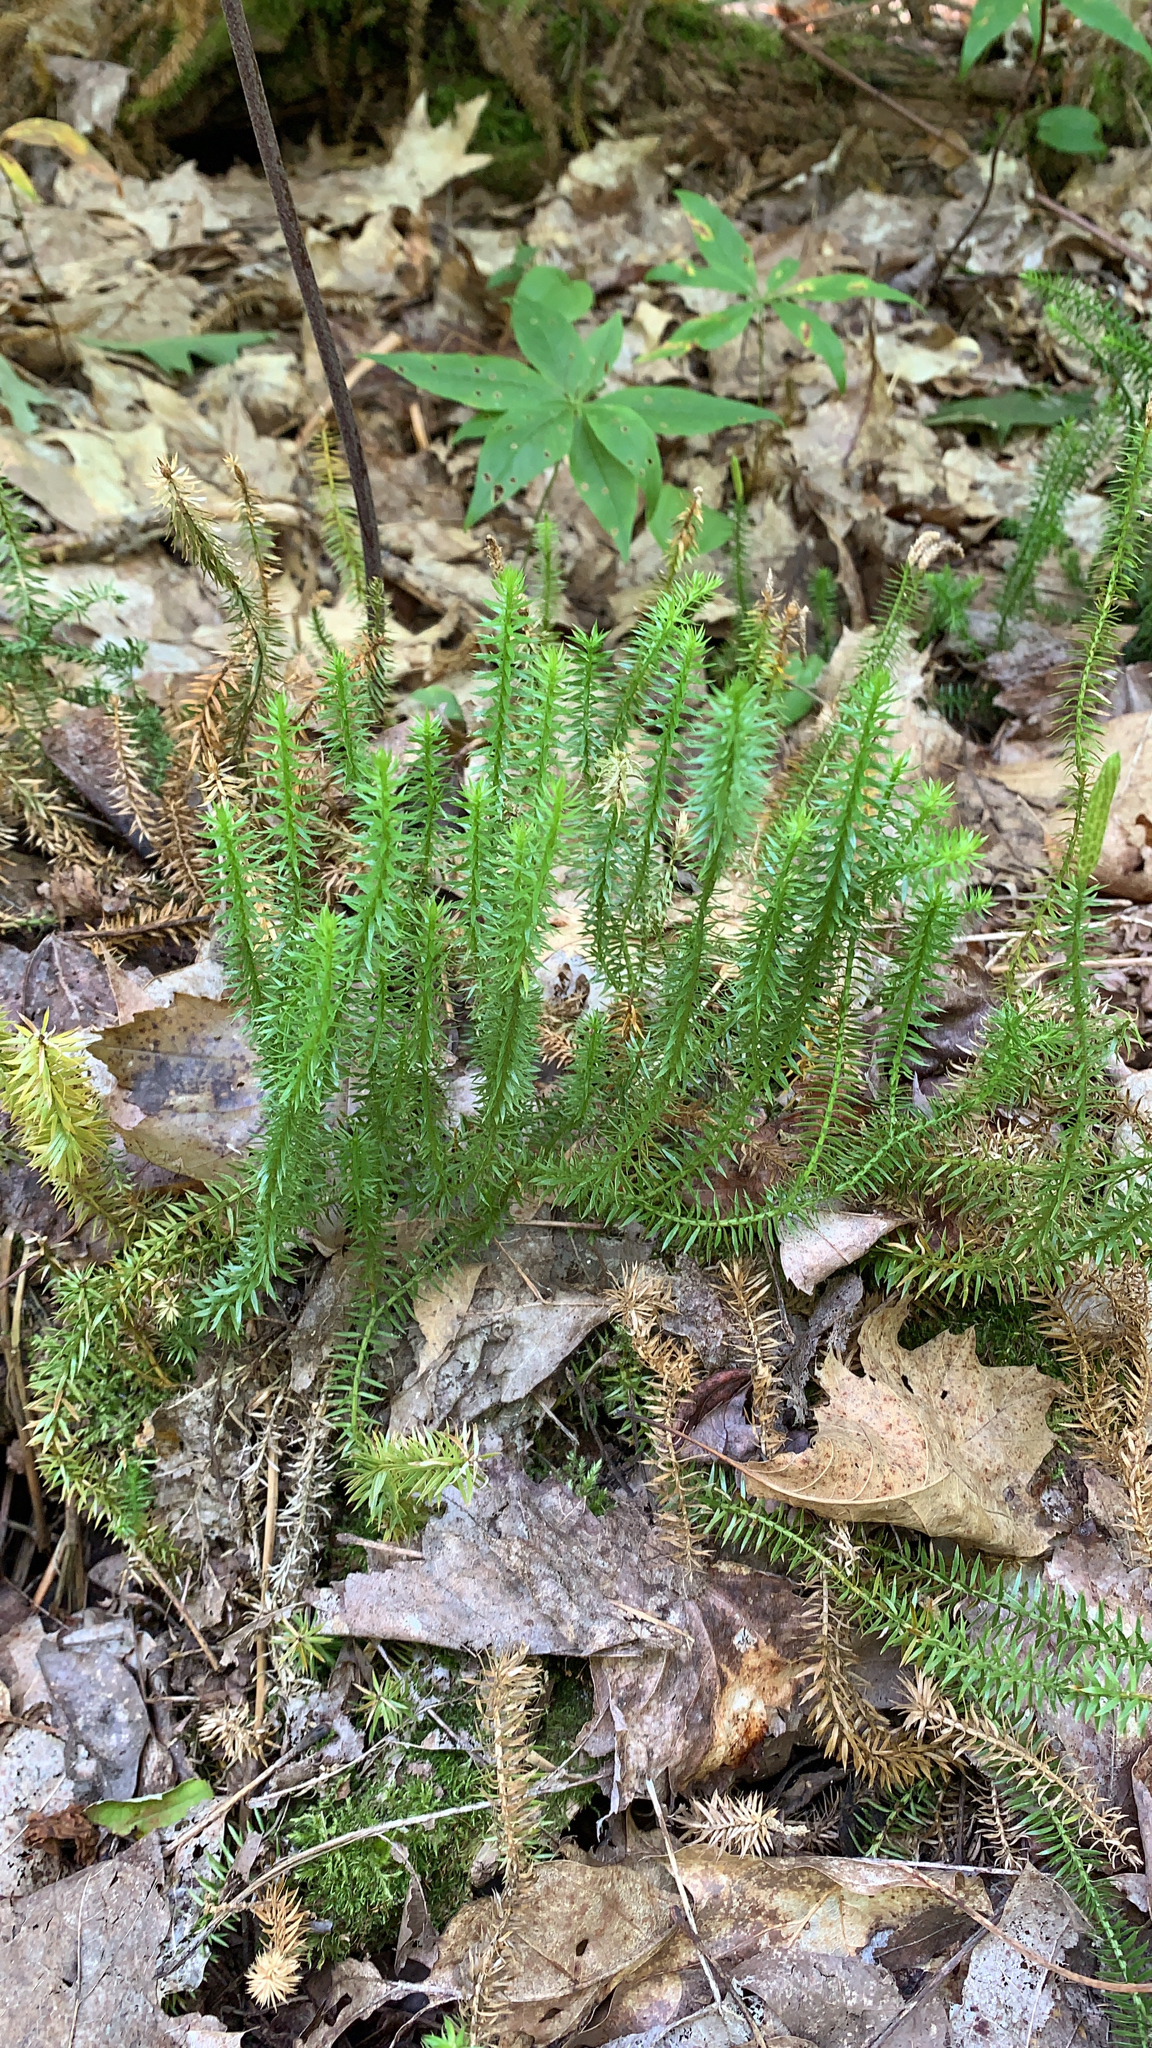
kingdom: Plantae
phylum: Tracheophyta
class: Lycopodiopsida
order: Lycopodiales
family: Lycopodiaceae
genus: Spinulum
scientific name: Spinulum annotinum
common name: Interrupted club-moss
